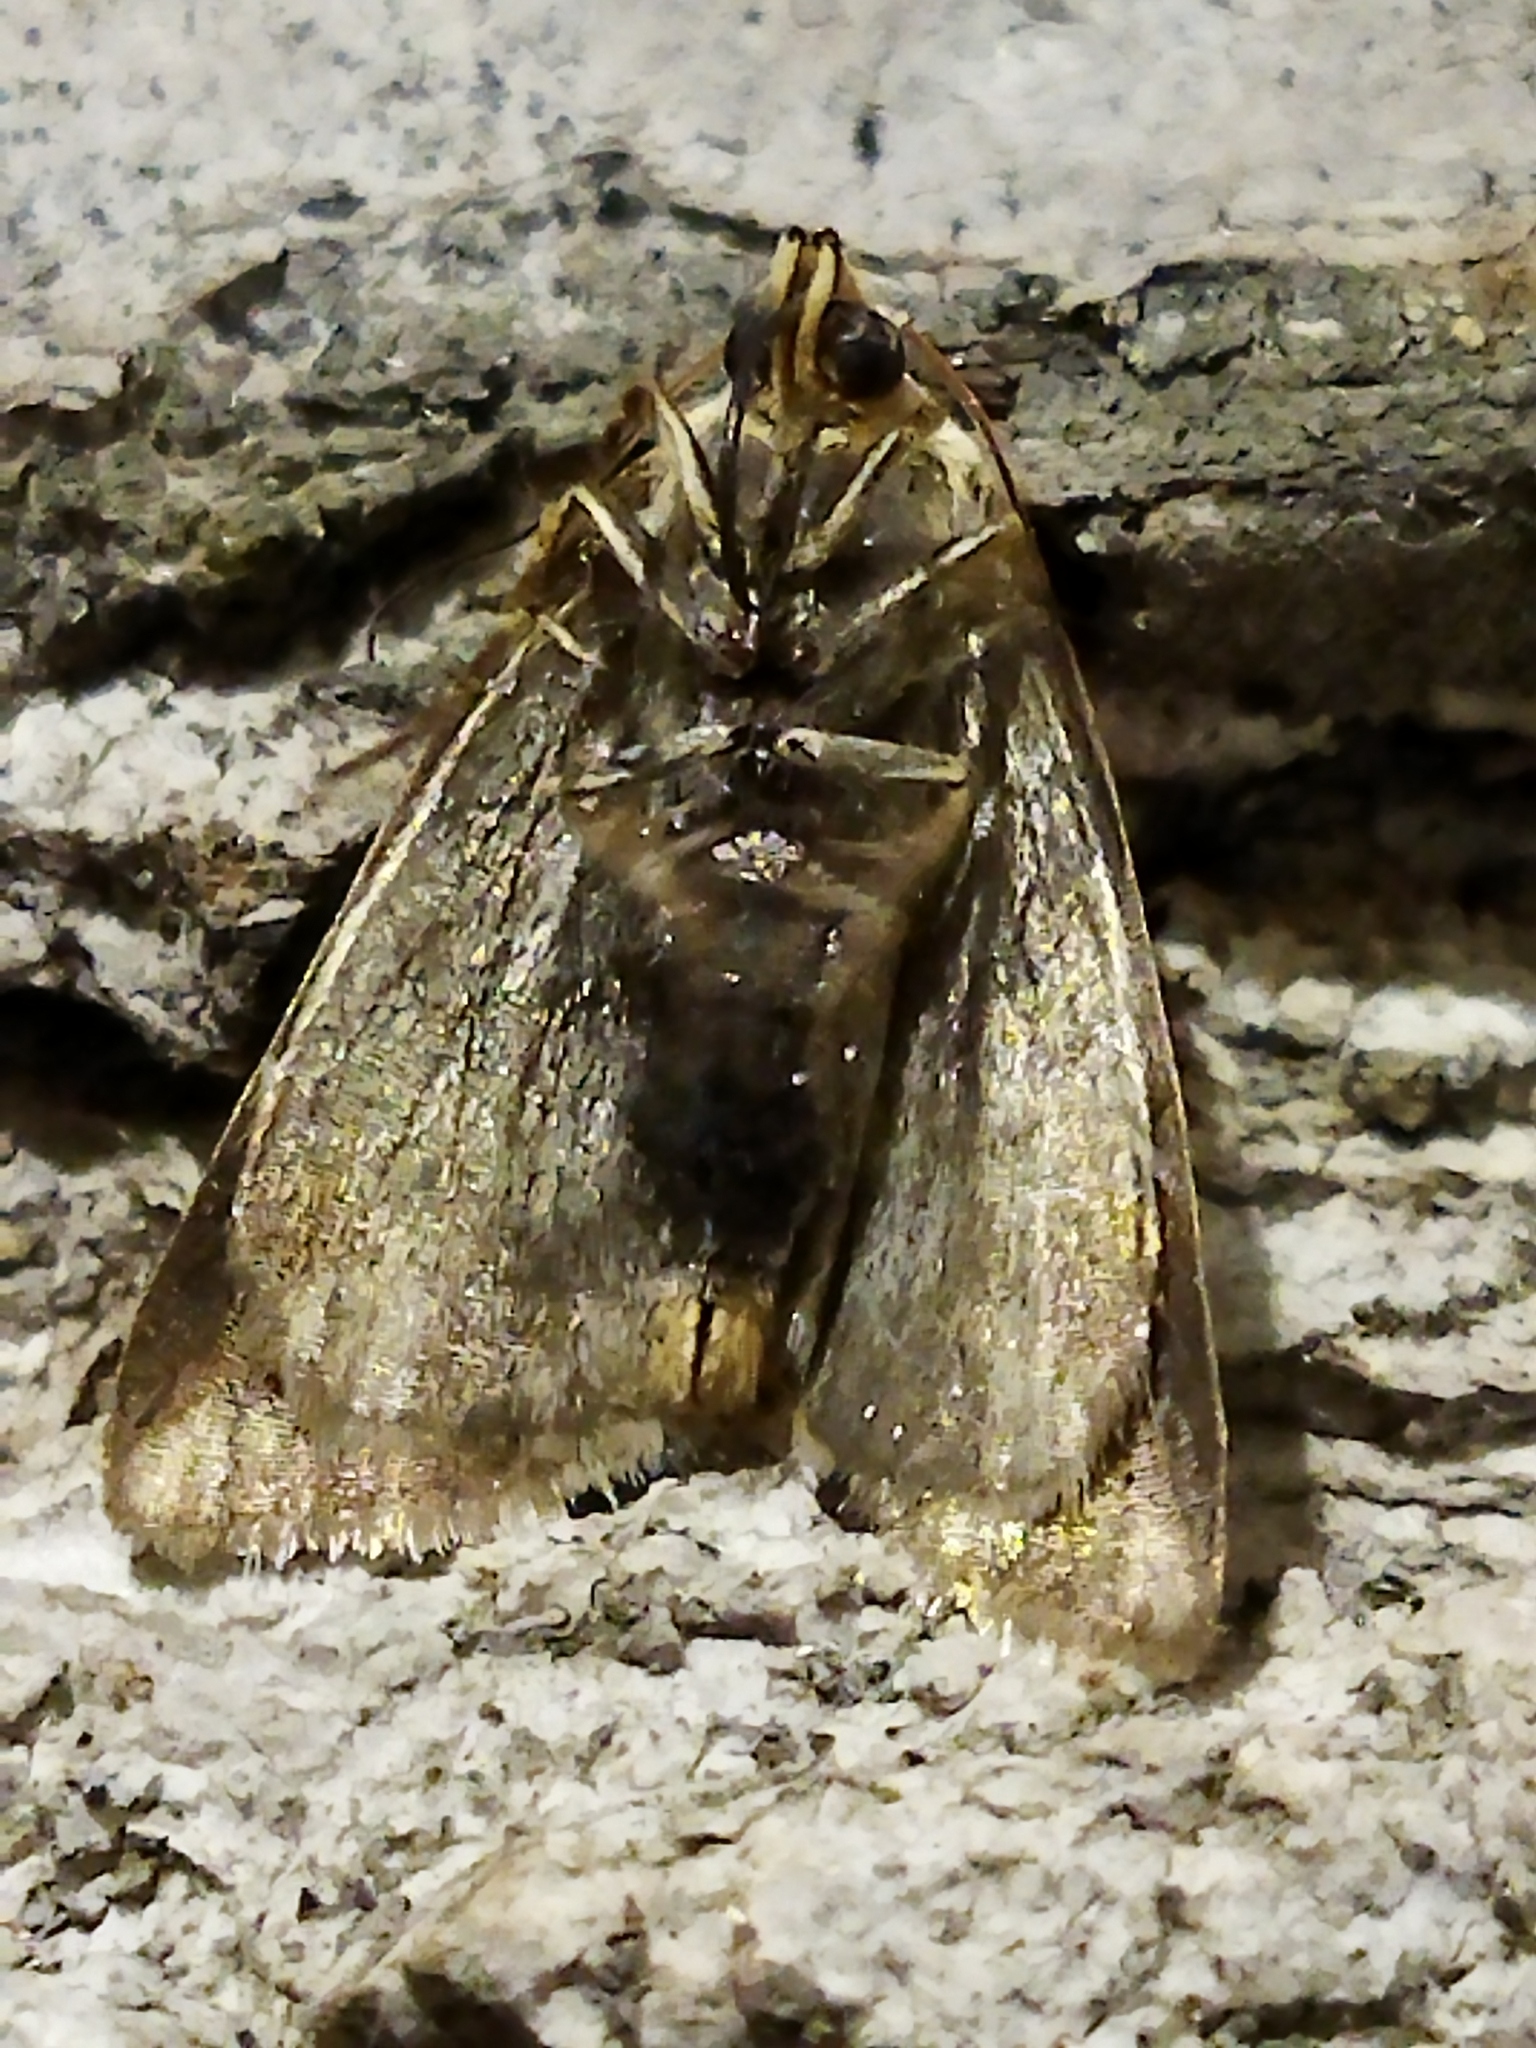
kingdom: Animalia
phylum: Arthropoda
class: Insecta
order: Lepidoptera
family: Noctuidae
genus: Aegle
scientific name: Aegle kaekeritziana
